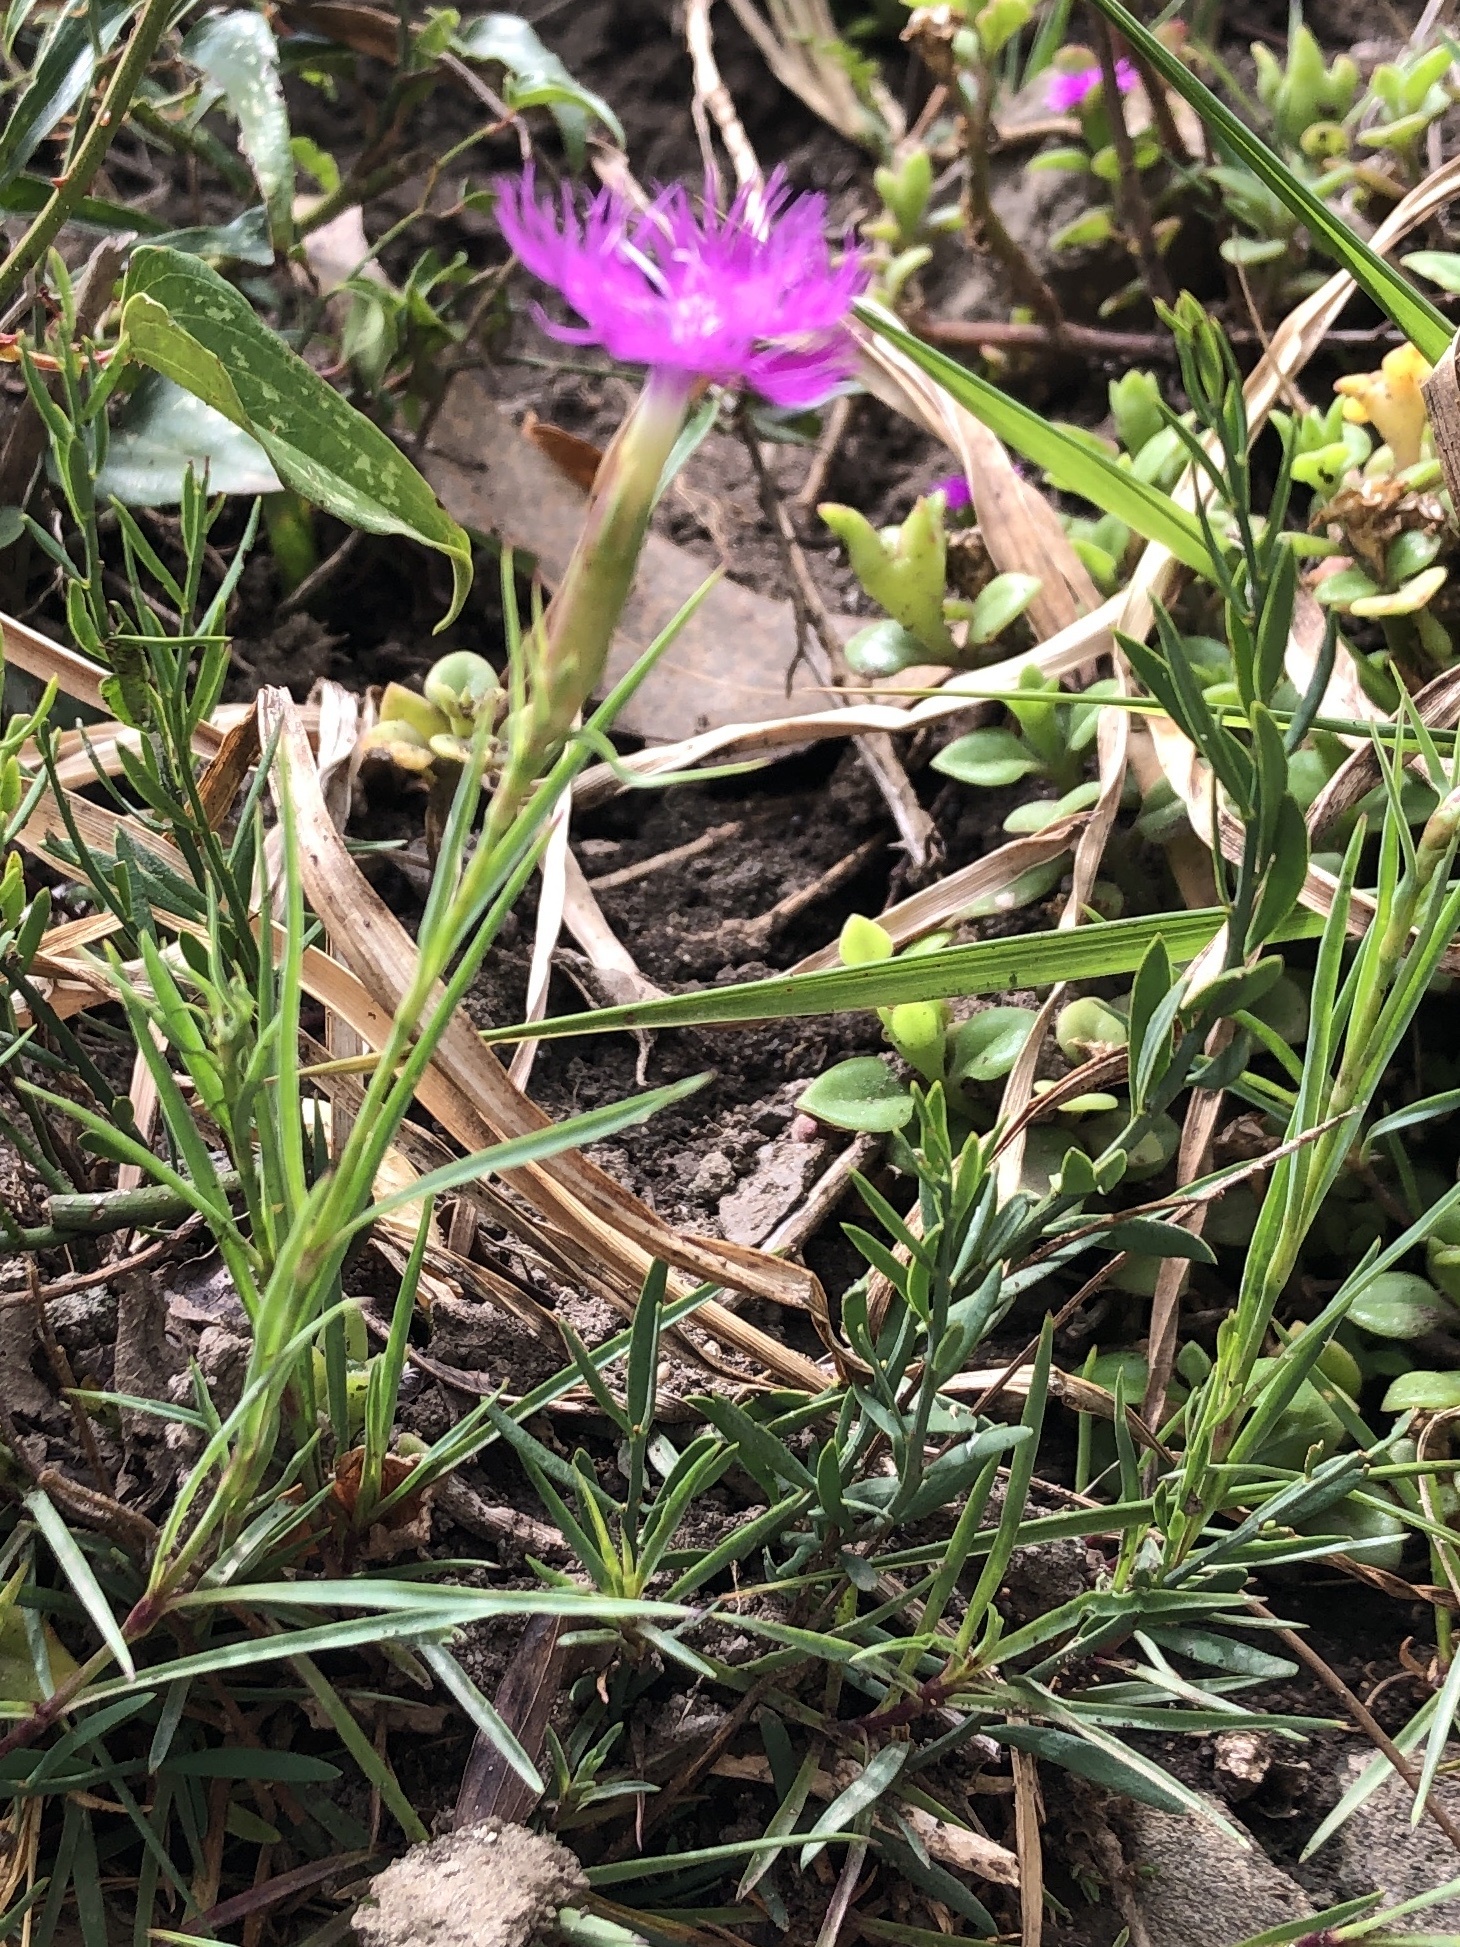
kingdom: Plantae
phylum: Tracheophyta
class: Magnoliopsida
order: Caryophyllales
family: Caryophyllaceae
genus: Dianthus
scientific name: Dianthus hyssopifolius
